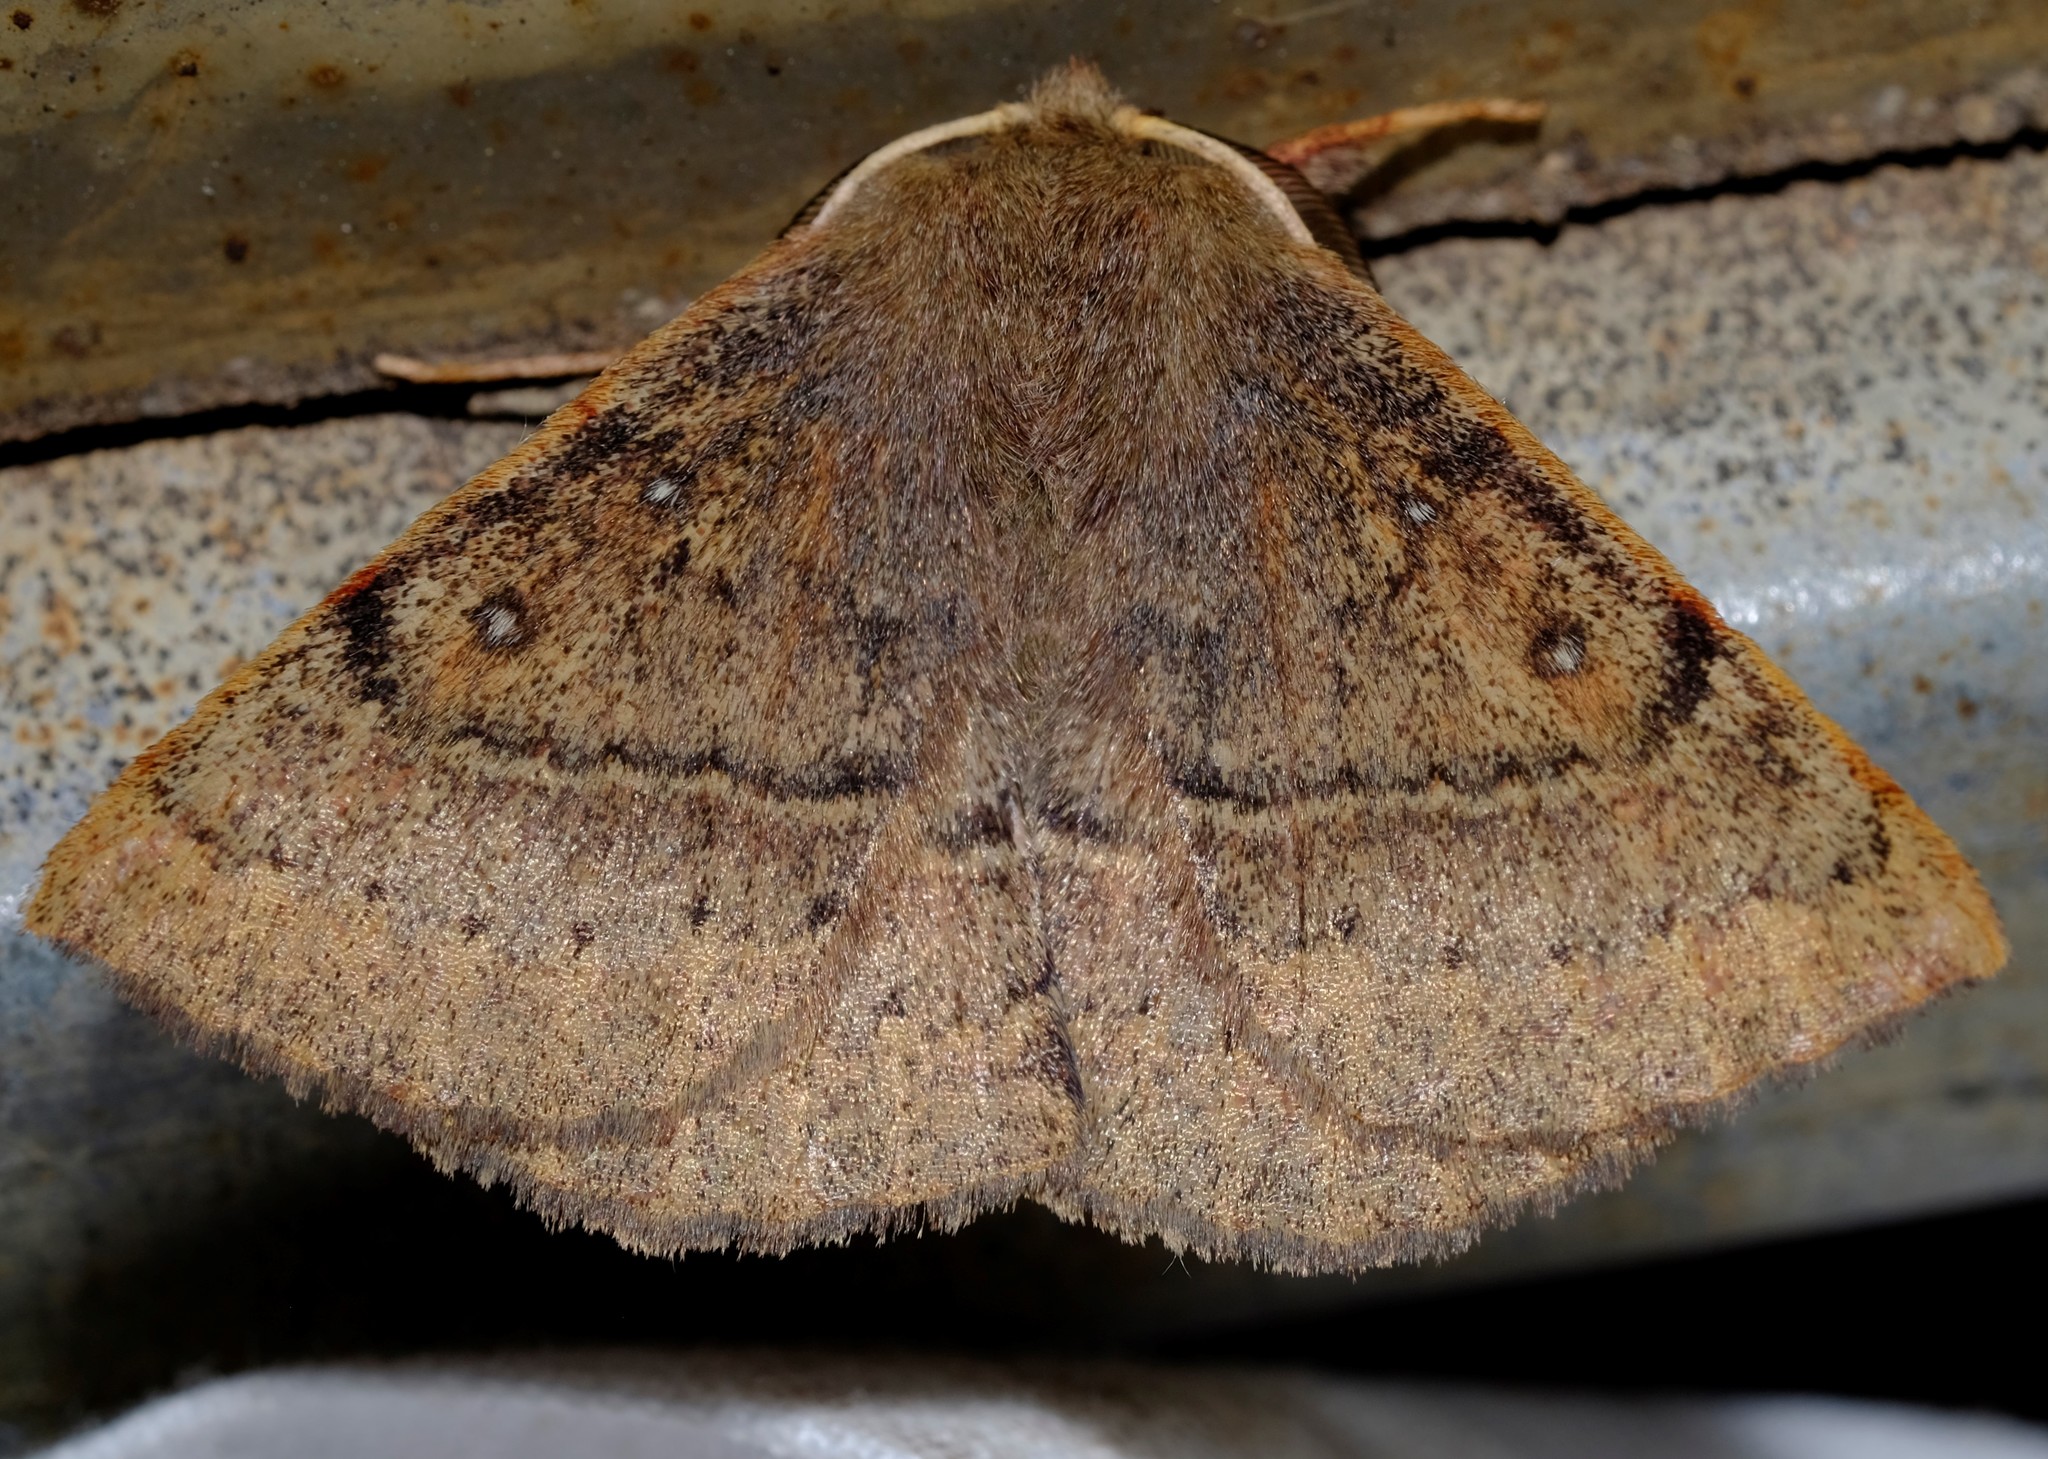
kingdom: Animalia
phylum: Arthropoda
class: Insecta
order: Lepidoptera
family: Anthelidae
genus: Anthela
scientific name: Anthela repleta
